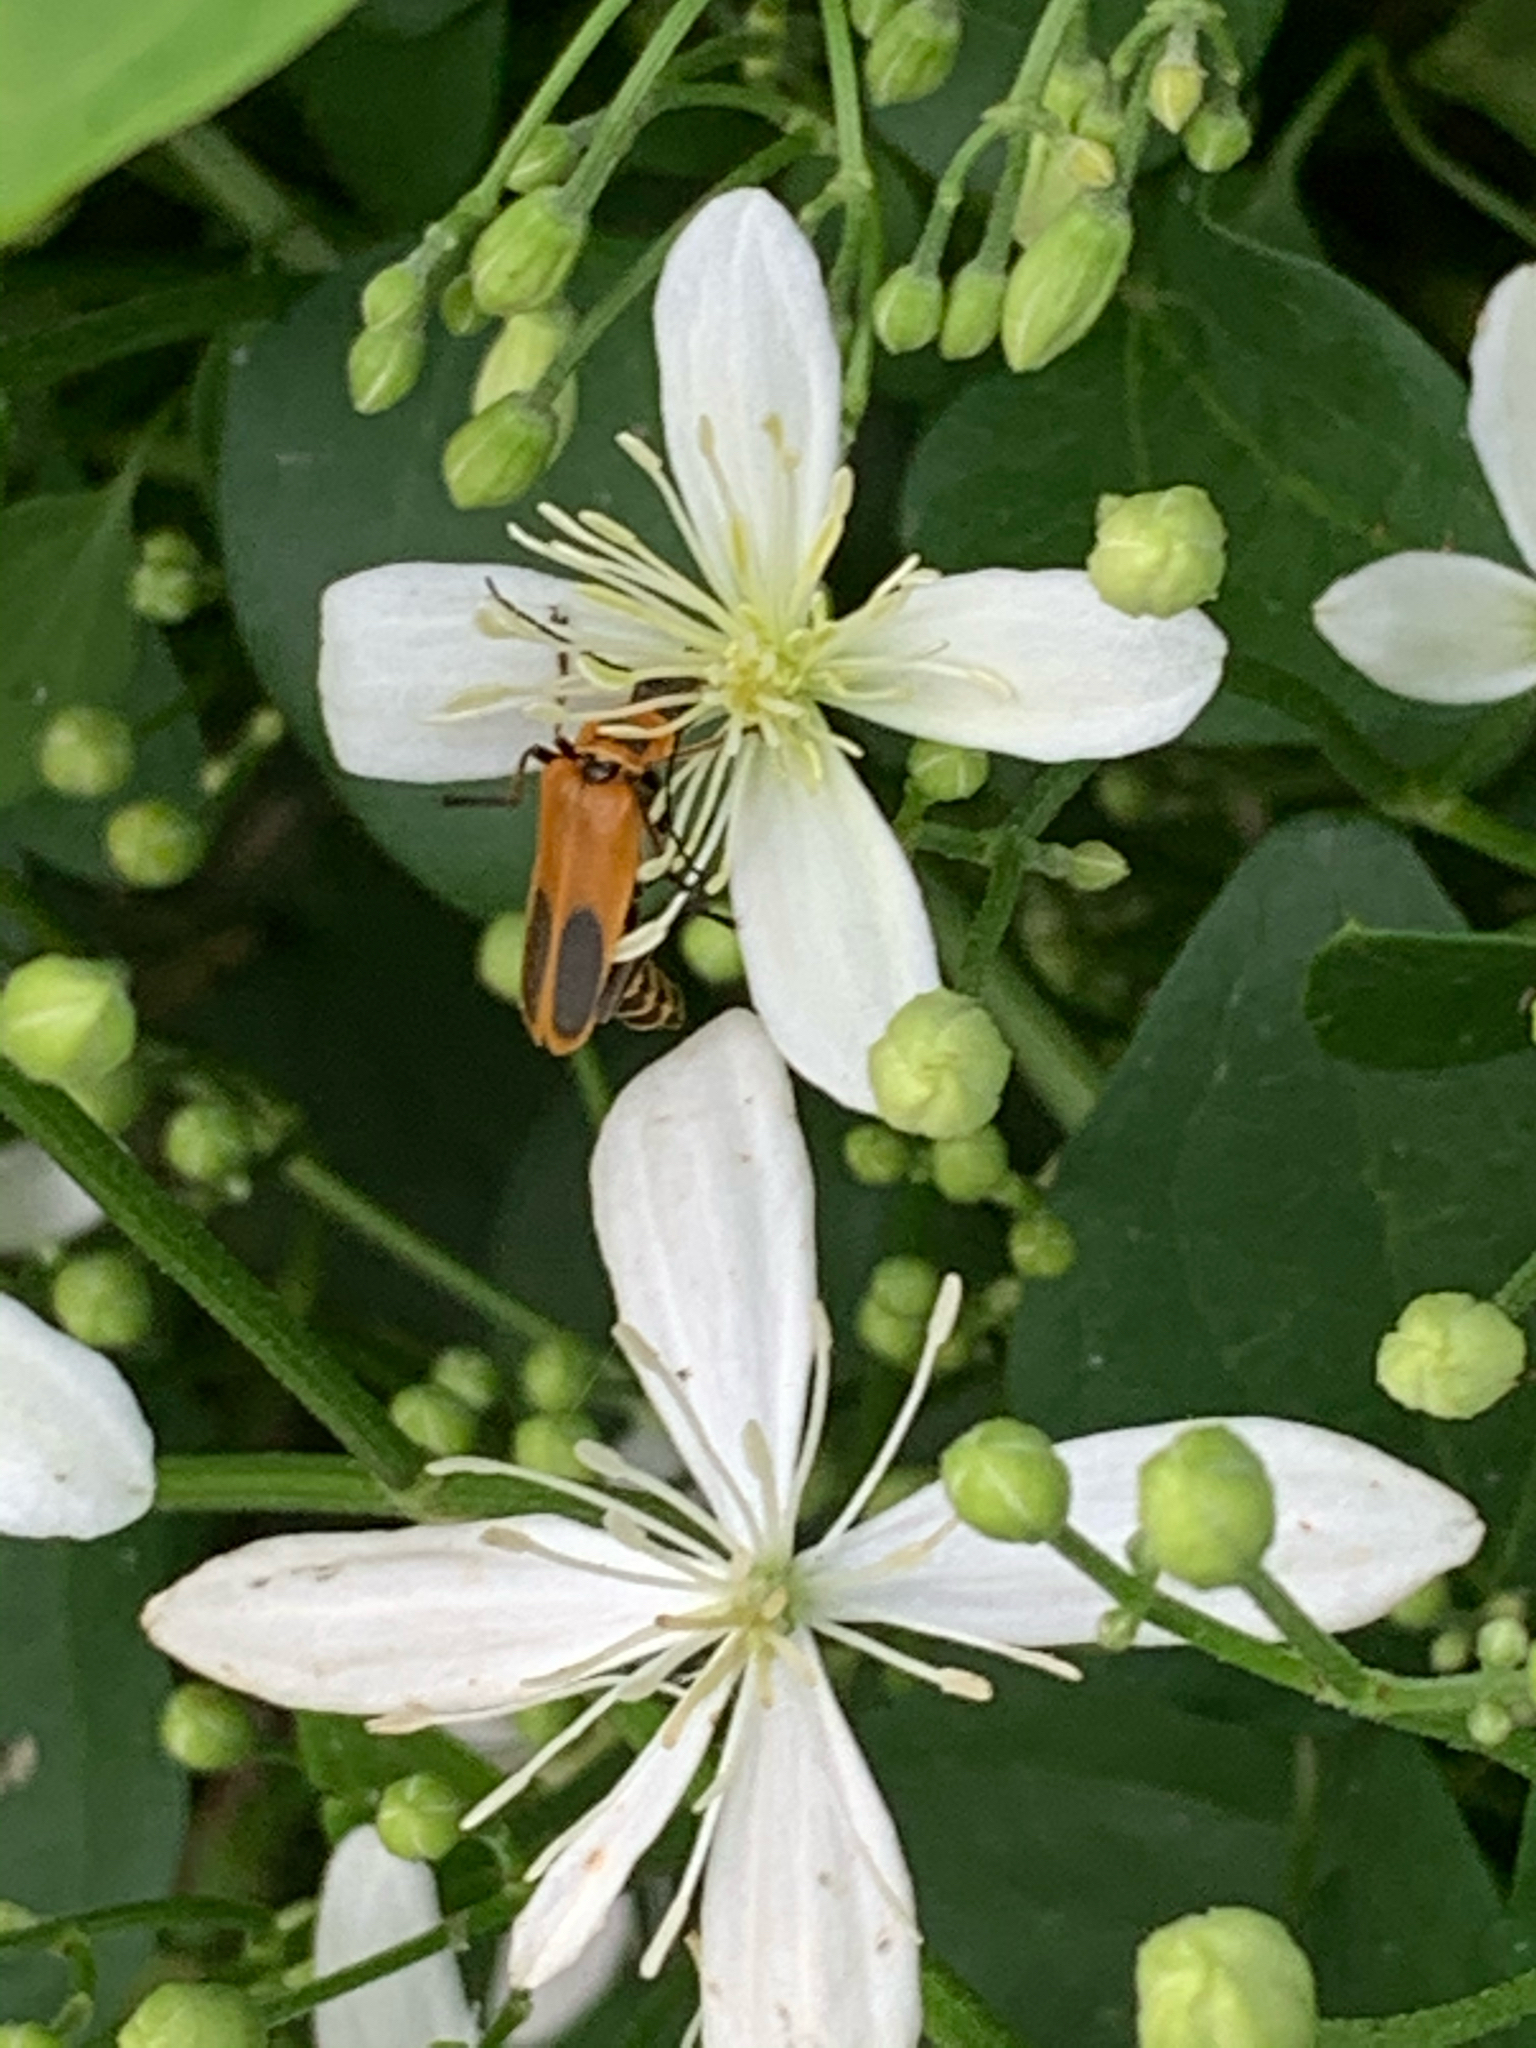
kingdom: Animalia
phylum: Arthropoda
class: Insecta
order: Coleoptera
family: Cantharidae
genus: Chauliognathus
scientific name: Chauliognathus pensylvanicus
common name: Goldenrod soldier beetle
